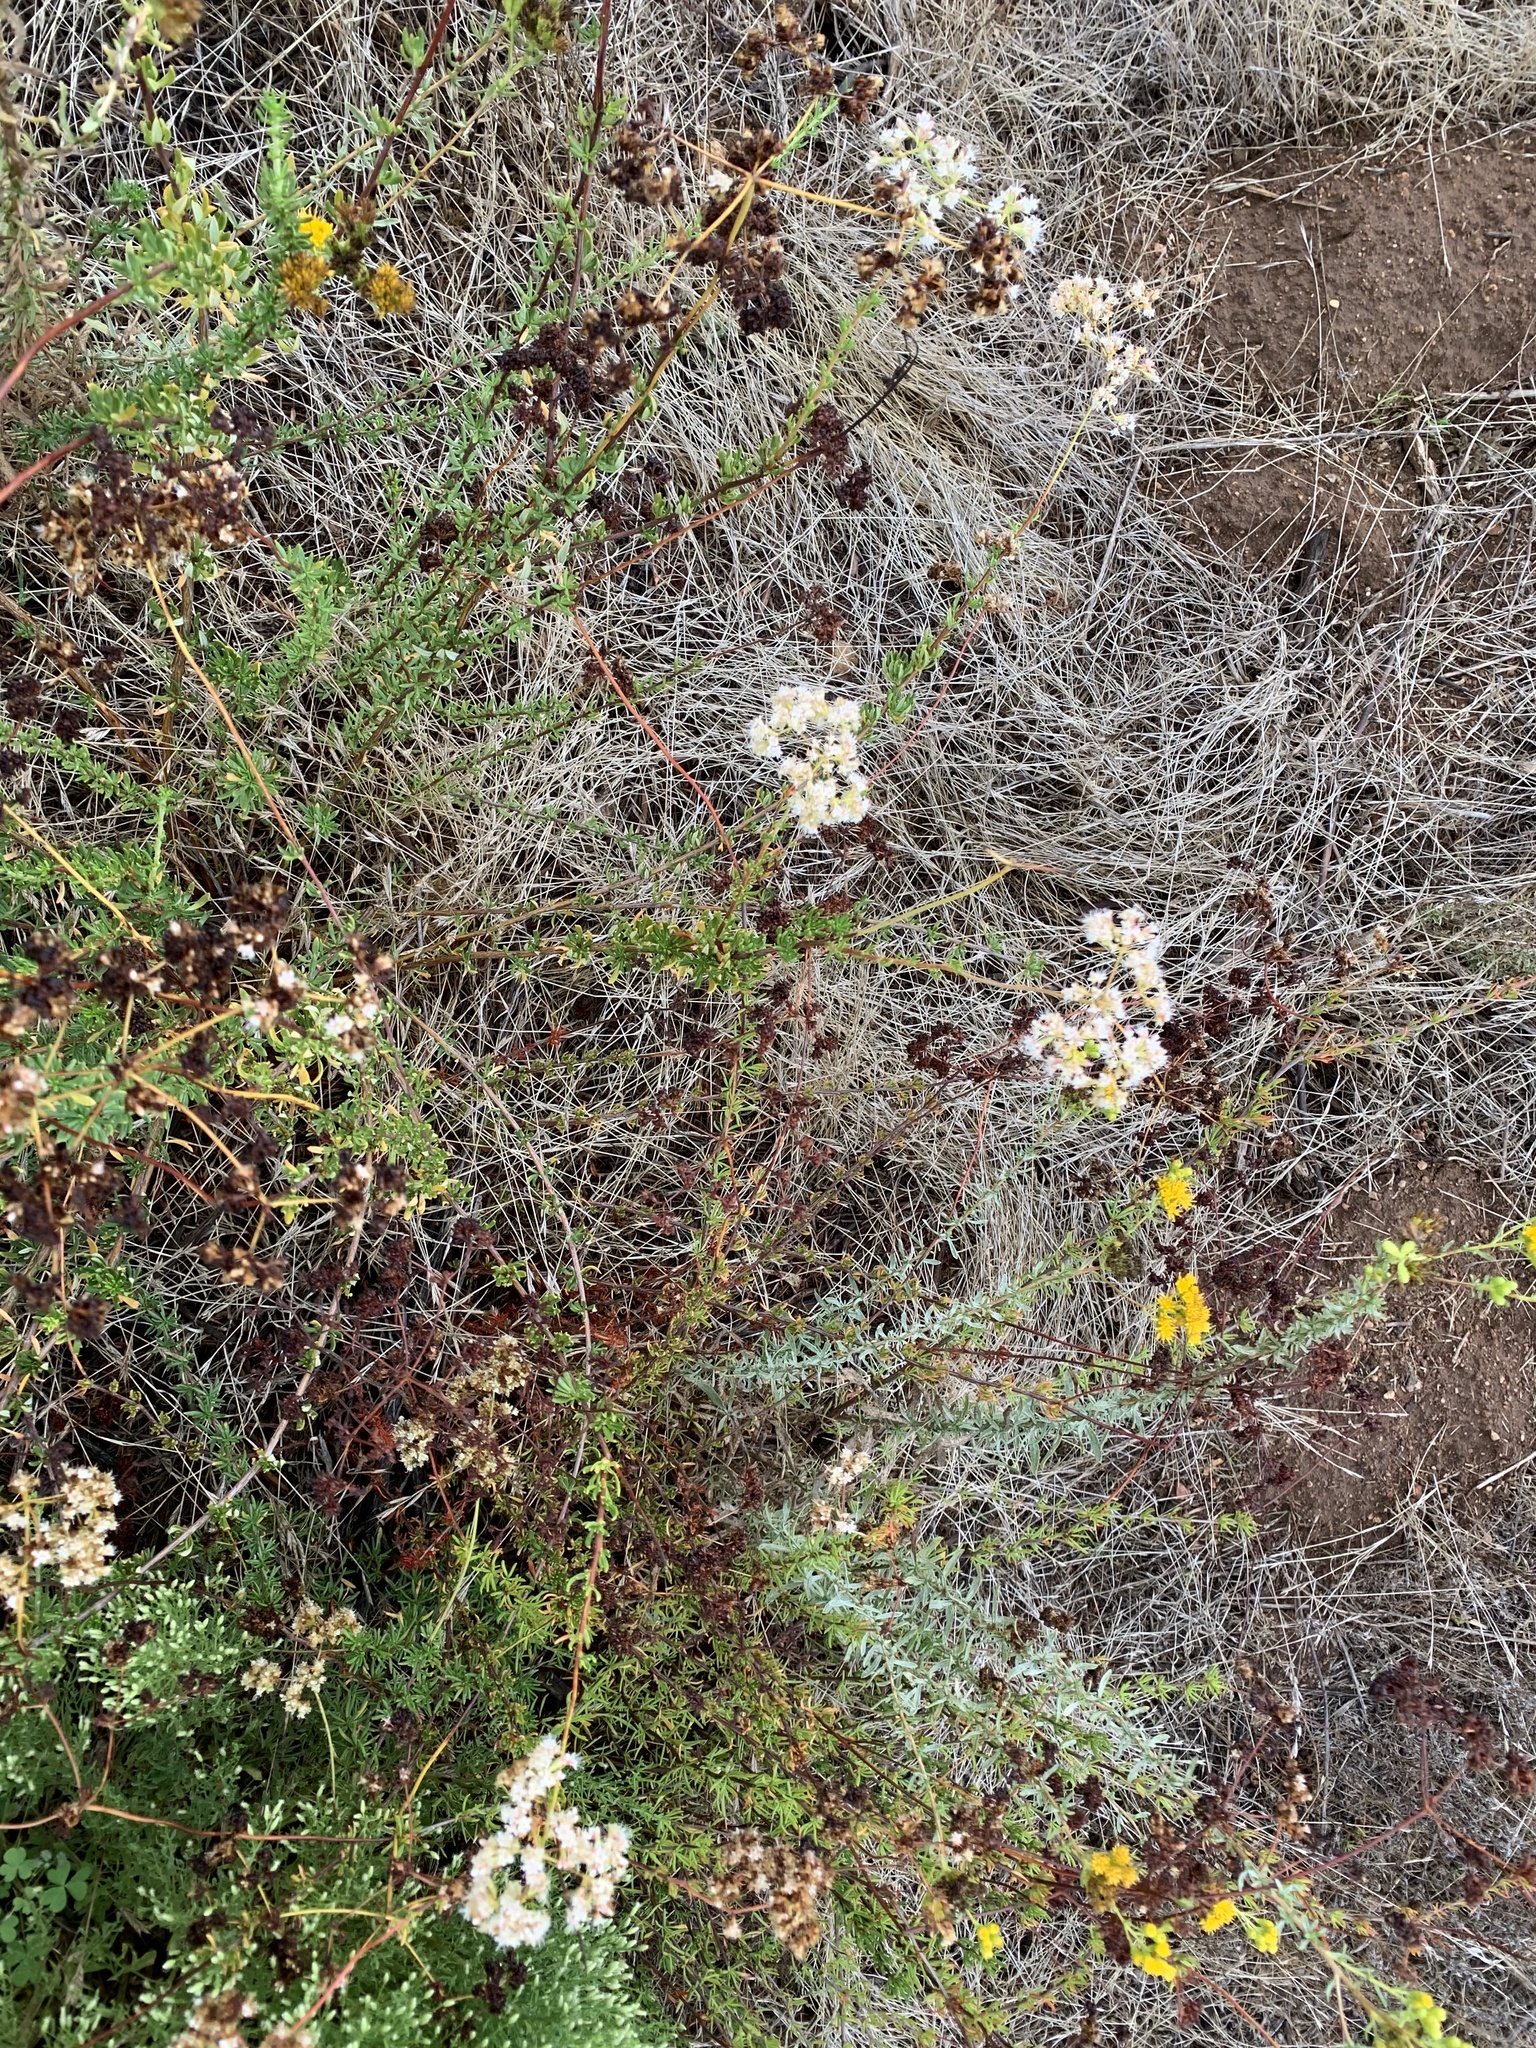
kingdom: Plantae
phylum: Tracheophyta
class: Magnoliopsida
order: Caryophyllales
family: Polygonaceae
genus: Eriogonum
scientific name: Eriogonum fasciculatum
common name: California wild buckwheat
